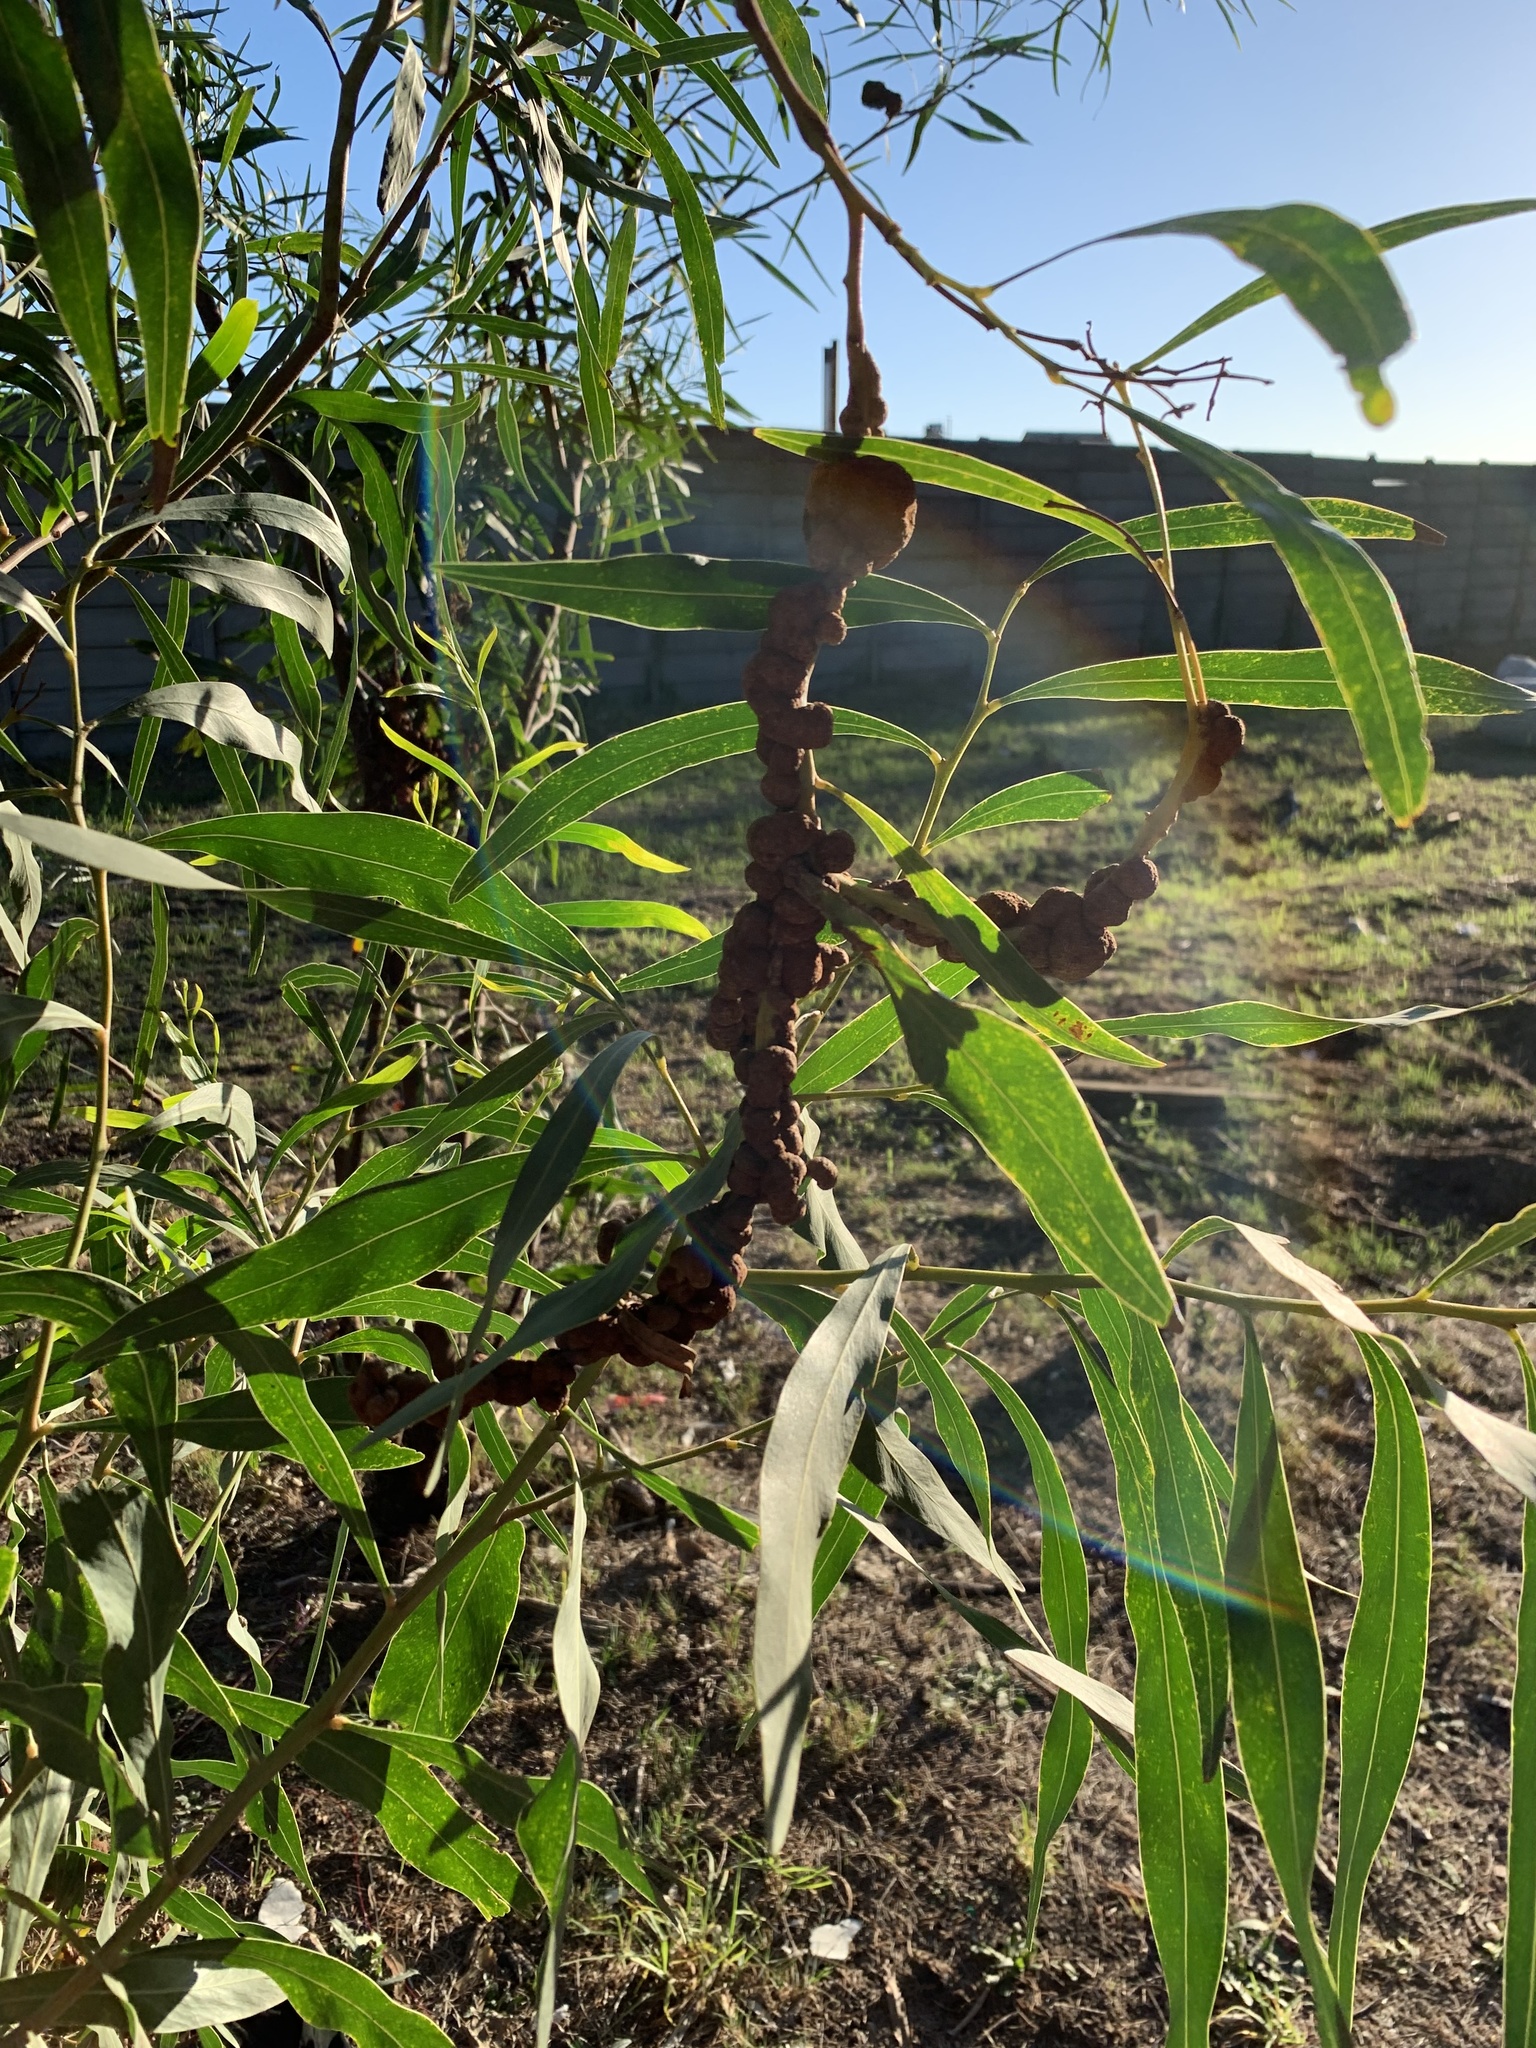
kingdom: Plantae
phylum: Tracheophyta
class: Magnoliopsida
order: Fabales
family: Fabaceae
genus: Acacia
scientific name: Acacia saligna
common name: Orange wattle
